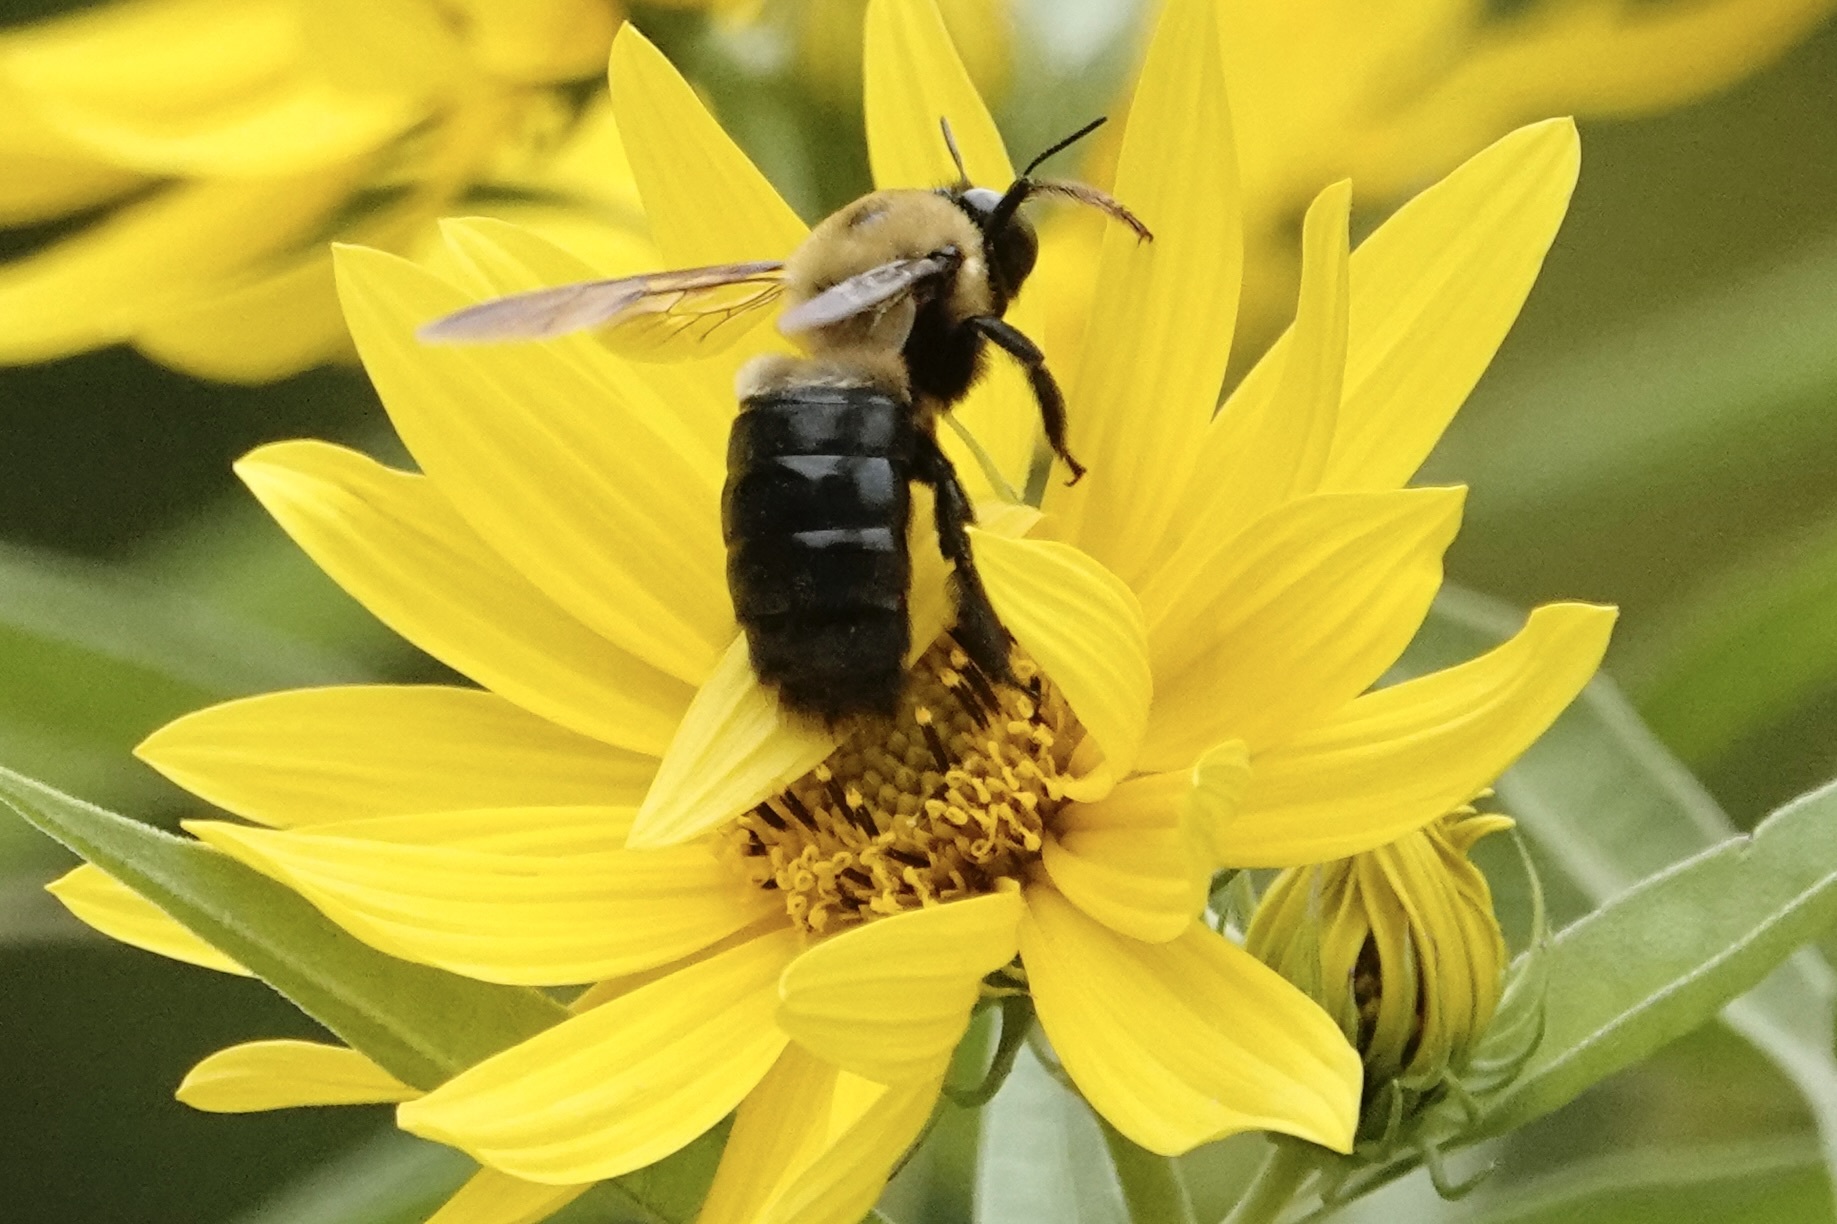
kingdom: Animalia
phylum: Arthropoda
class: Insecta
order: Hymenoptera
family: Apidae
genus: Xylocopa
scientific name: Xylocopa virginica
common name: Carpenter bee
